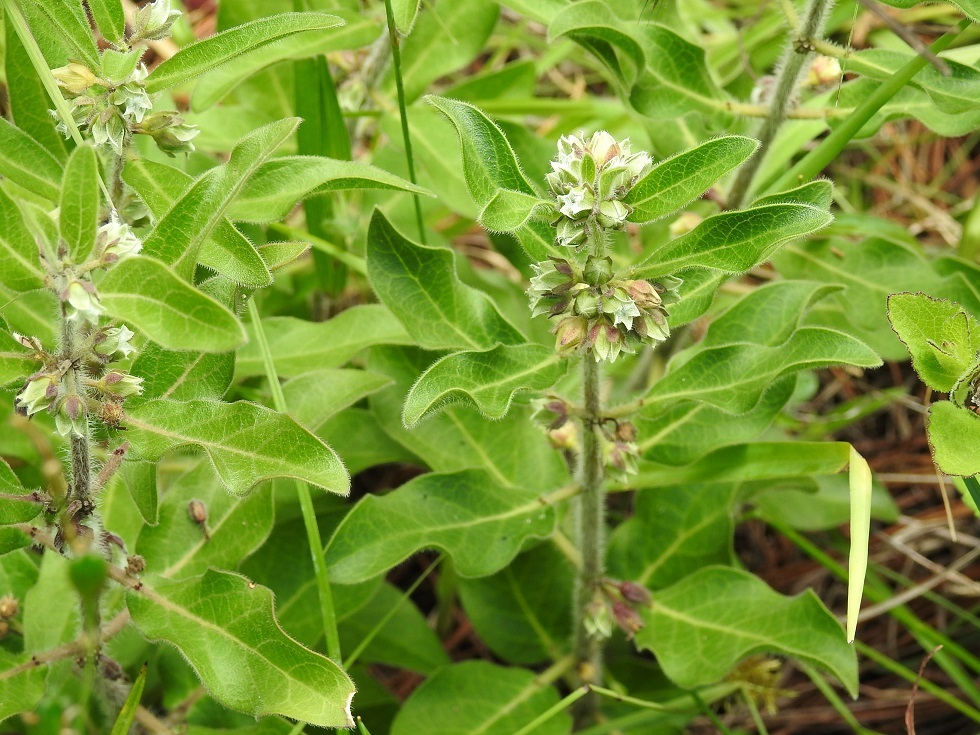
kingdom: Plantae
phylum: Tracheophyta
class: Magnoliopsida
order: Gentianales
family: Apocynaceae
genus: Pherotrichis
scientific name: Pherotrichis villosa
